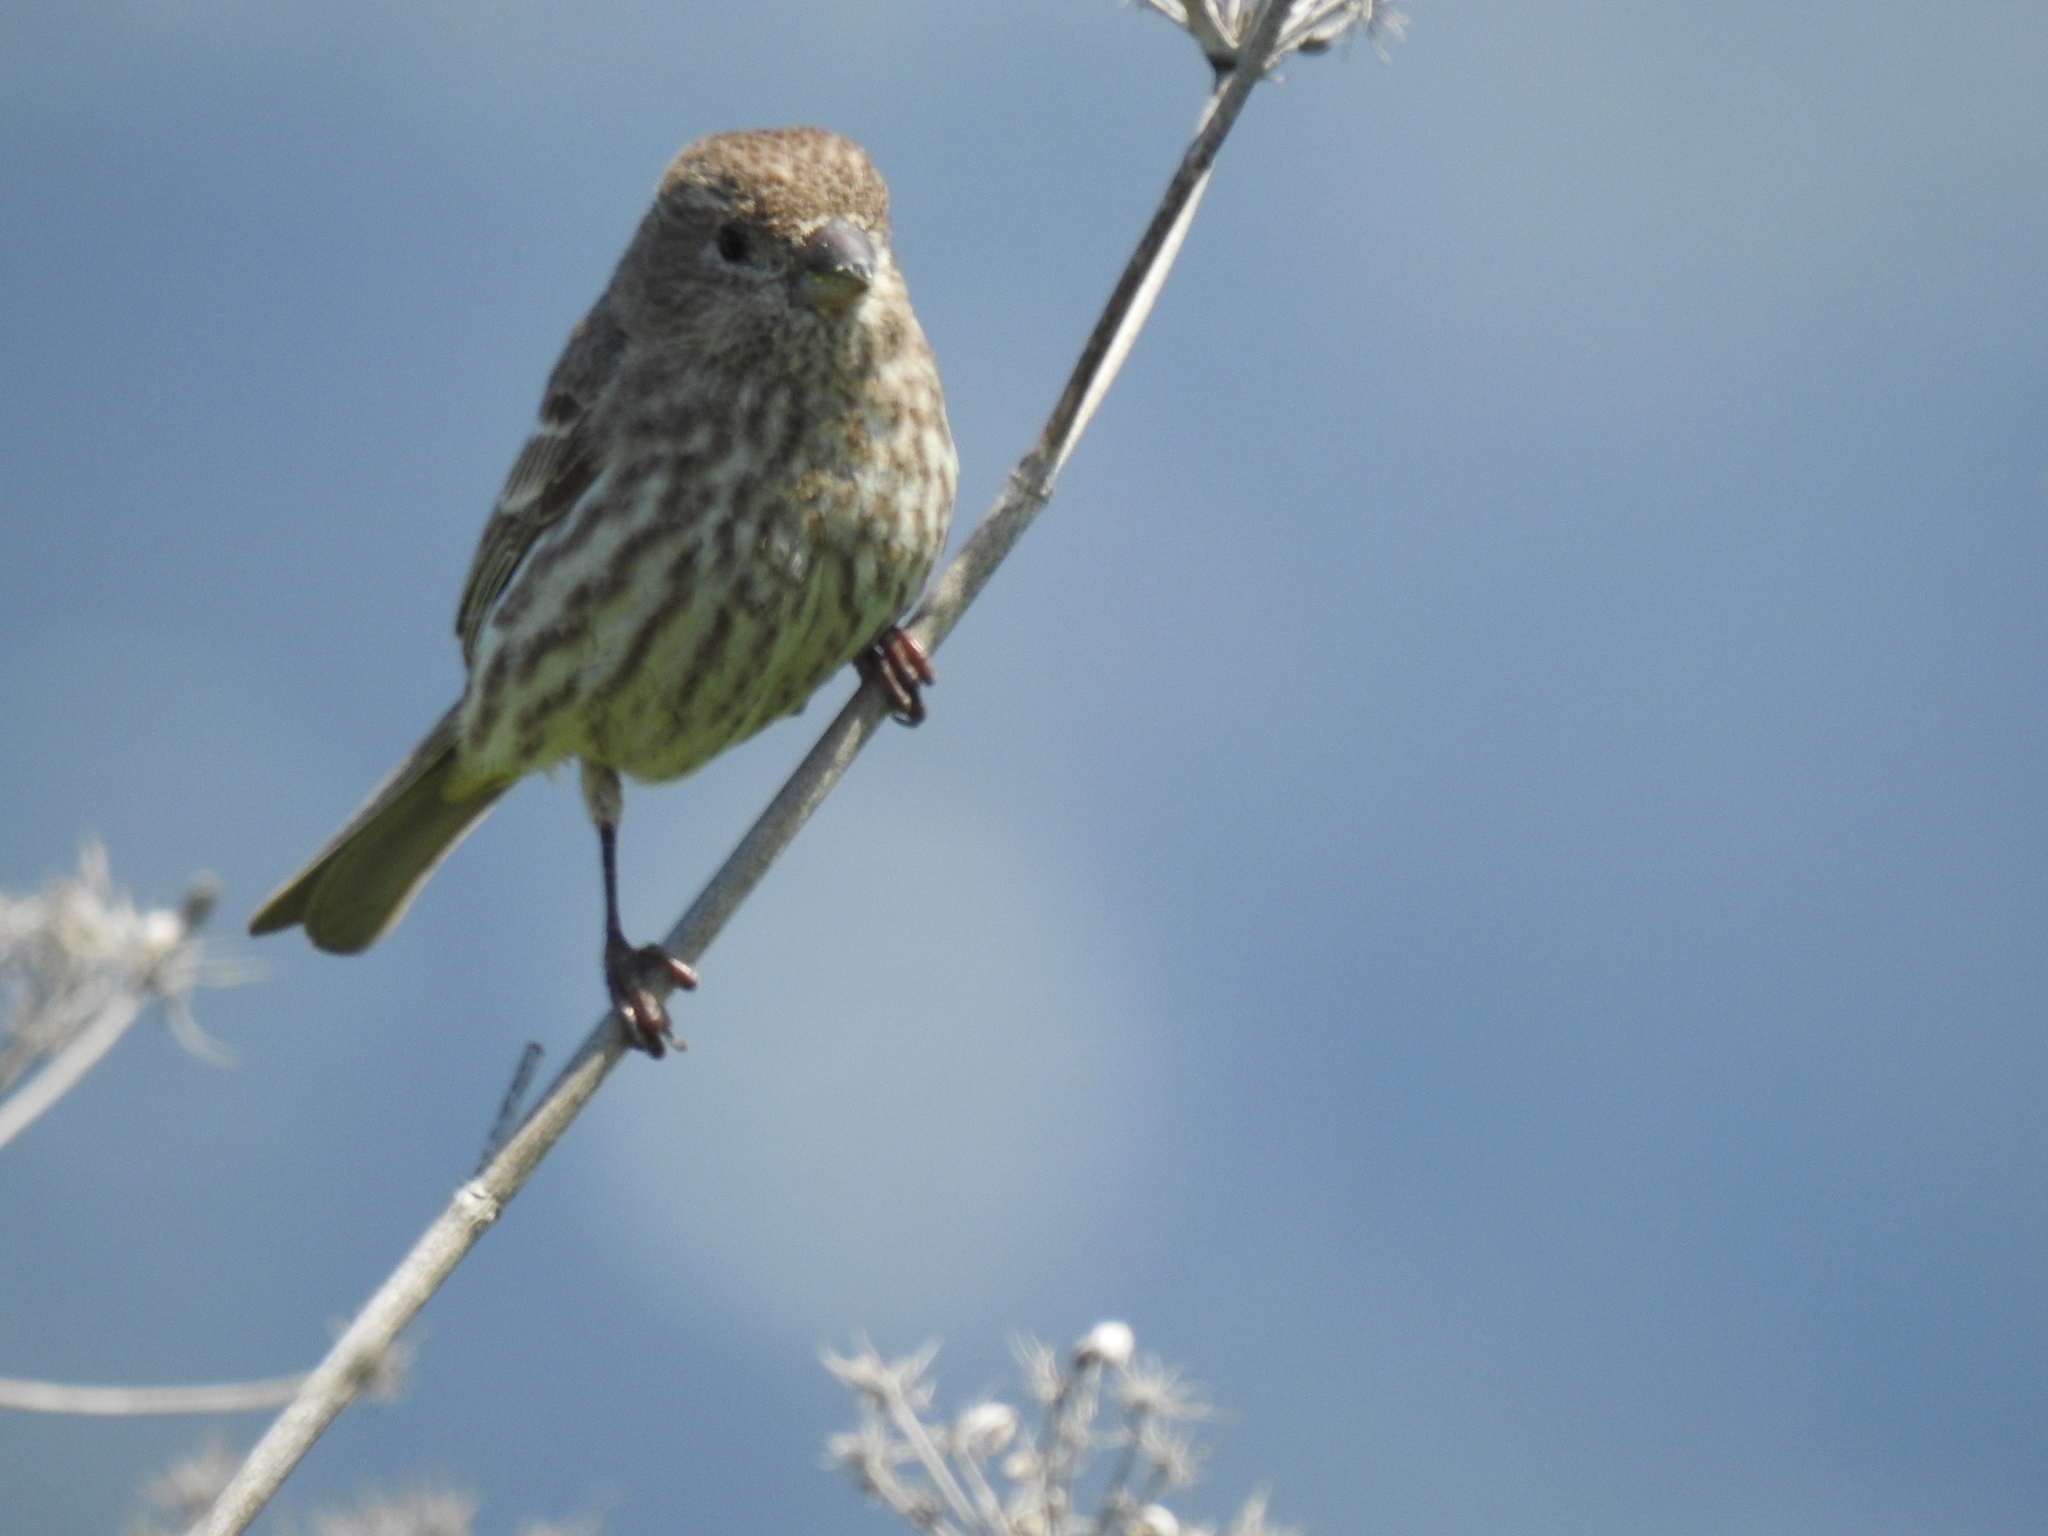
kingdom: Animalia
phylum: Chordata
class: Aves
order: Passeriformes
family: Fringillidae
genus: Haemorhous
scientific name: Haemorhous mexicanus
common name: House finch
